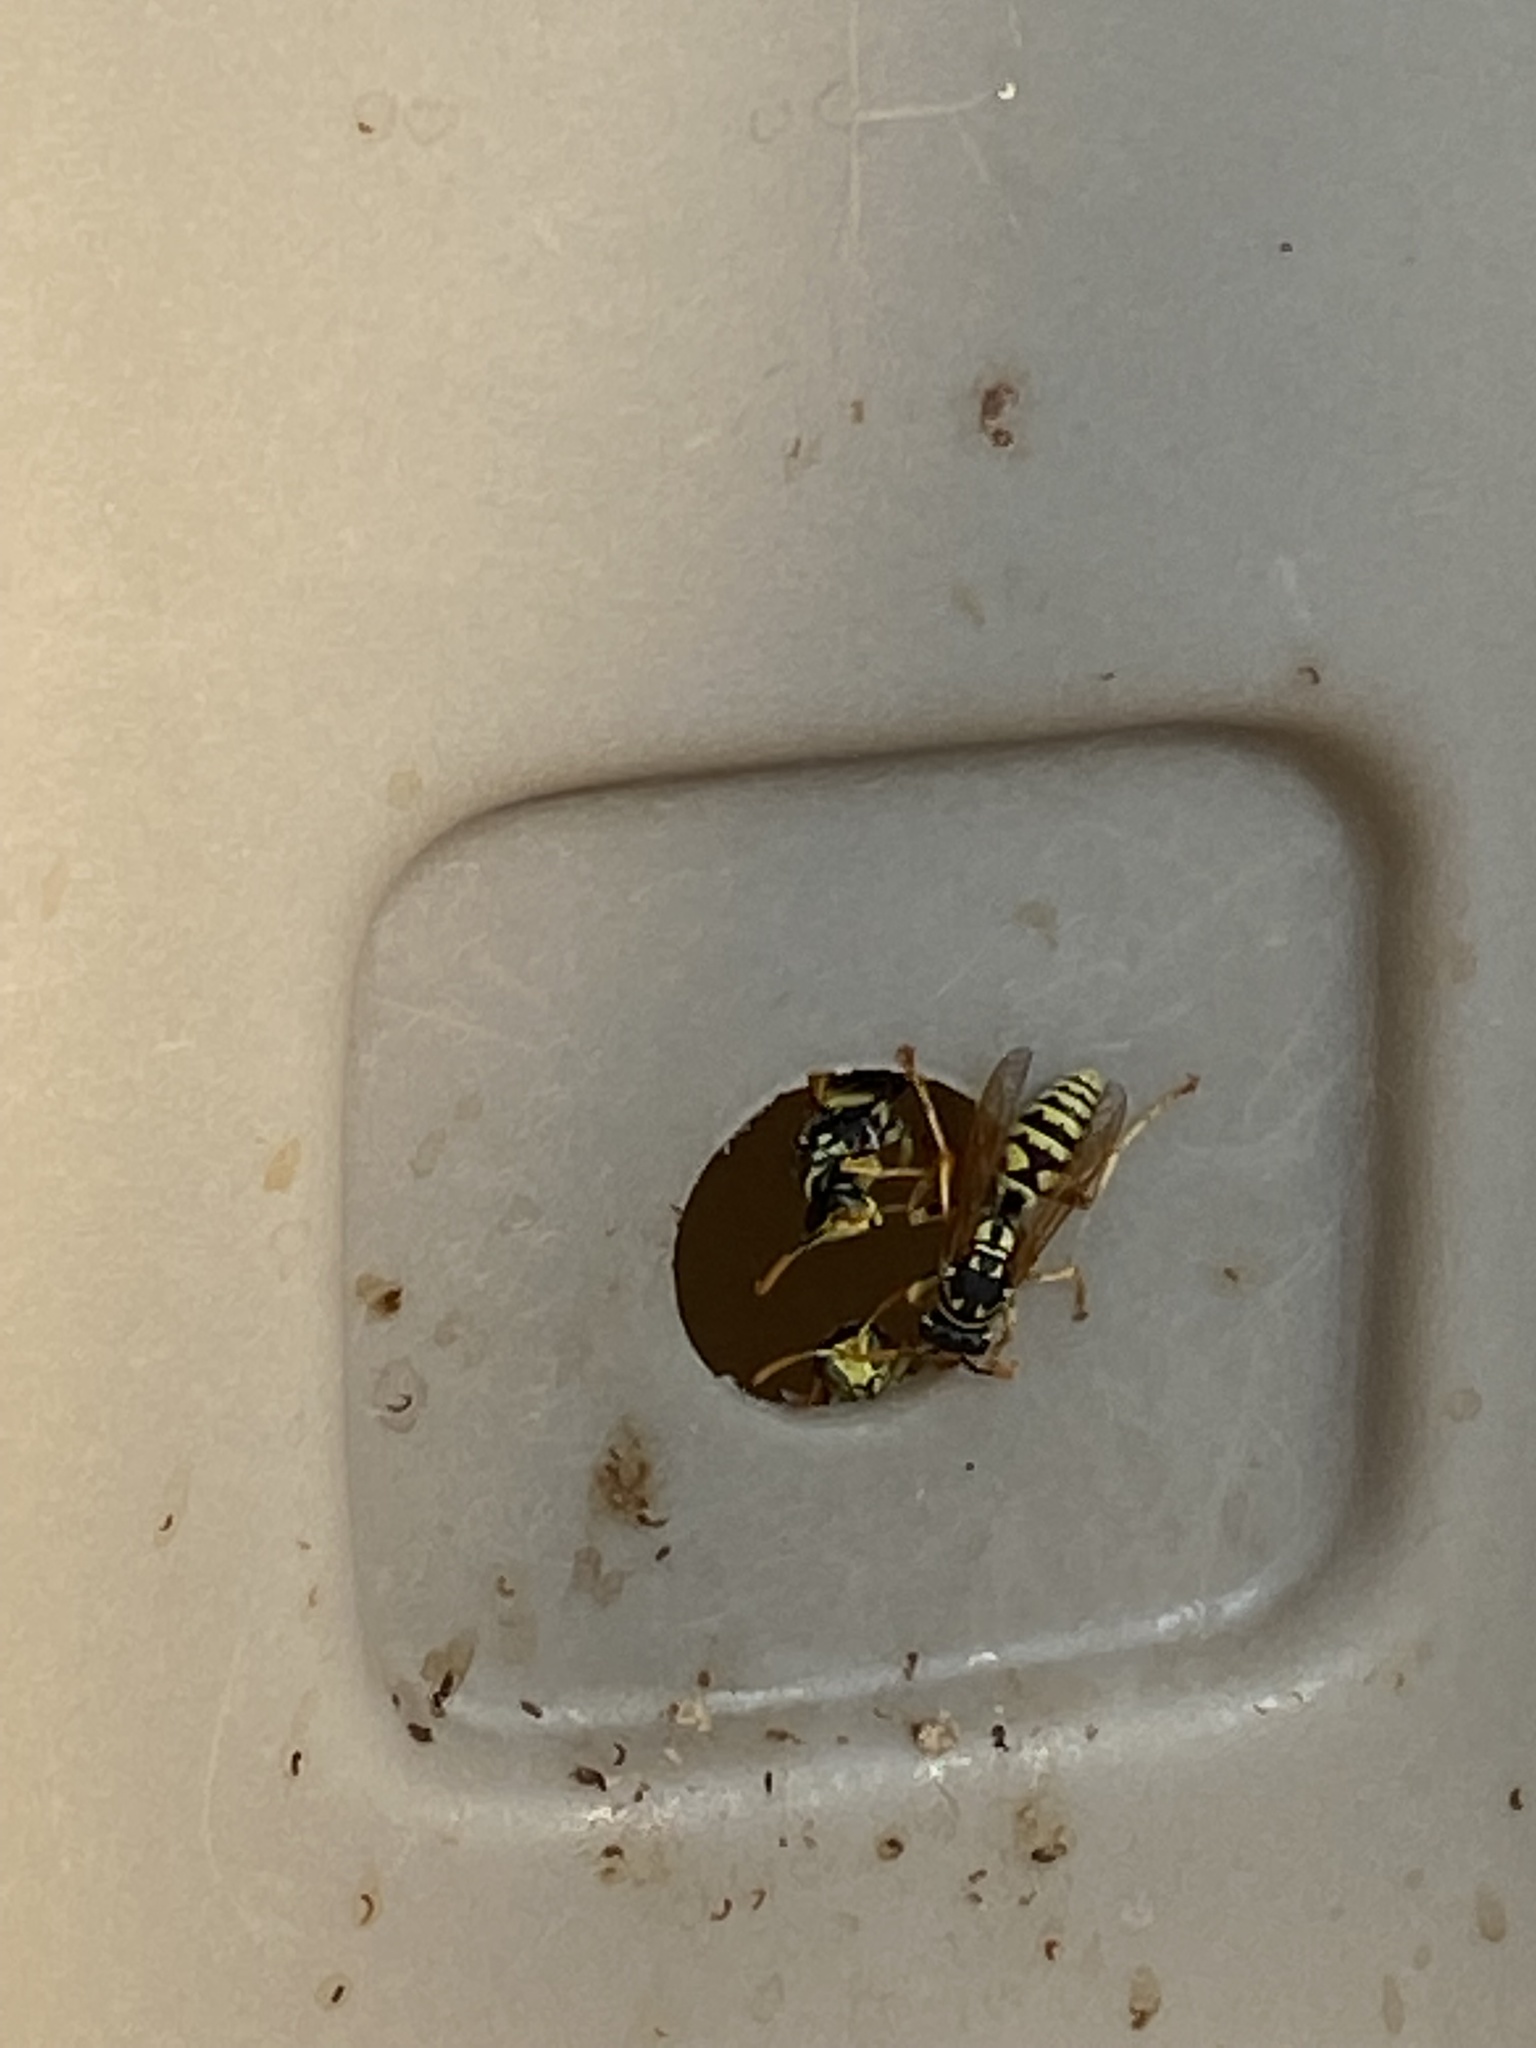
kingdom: Animalia
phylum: Arthropoda
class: Insecta
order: Hymenoptera
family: Eumenidae
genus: Polistes
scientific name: Polistes dominula
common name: Paper wasp
